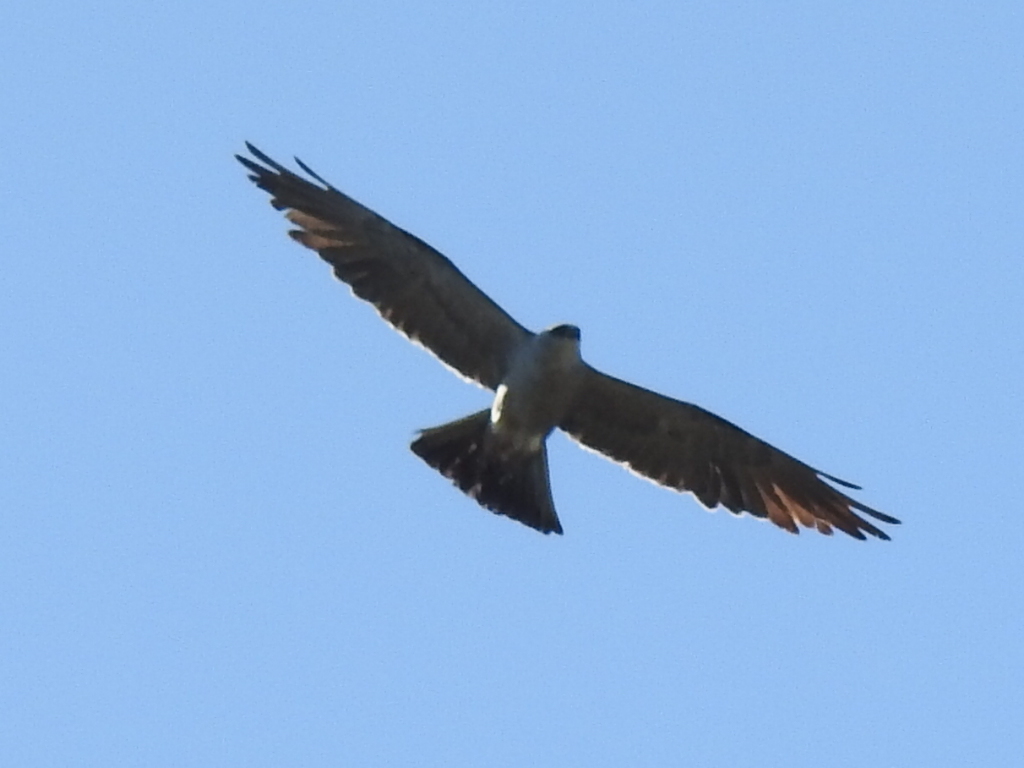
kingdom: Animalia
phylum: Chordata
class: Aves
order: Accipitriformes
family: Accipitridae
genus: Ictinia
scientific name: Ictinia mississippiensis
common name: Mississippi kite
